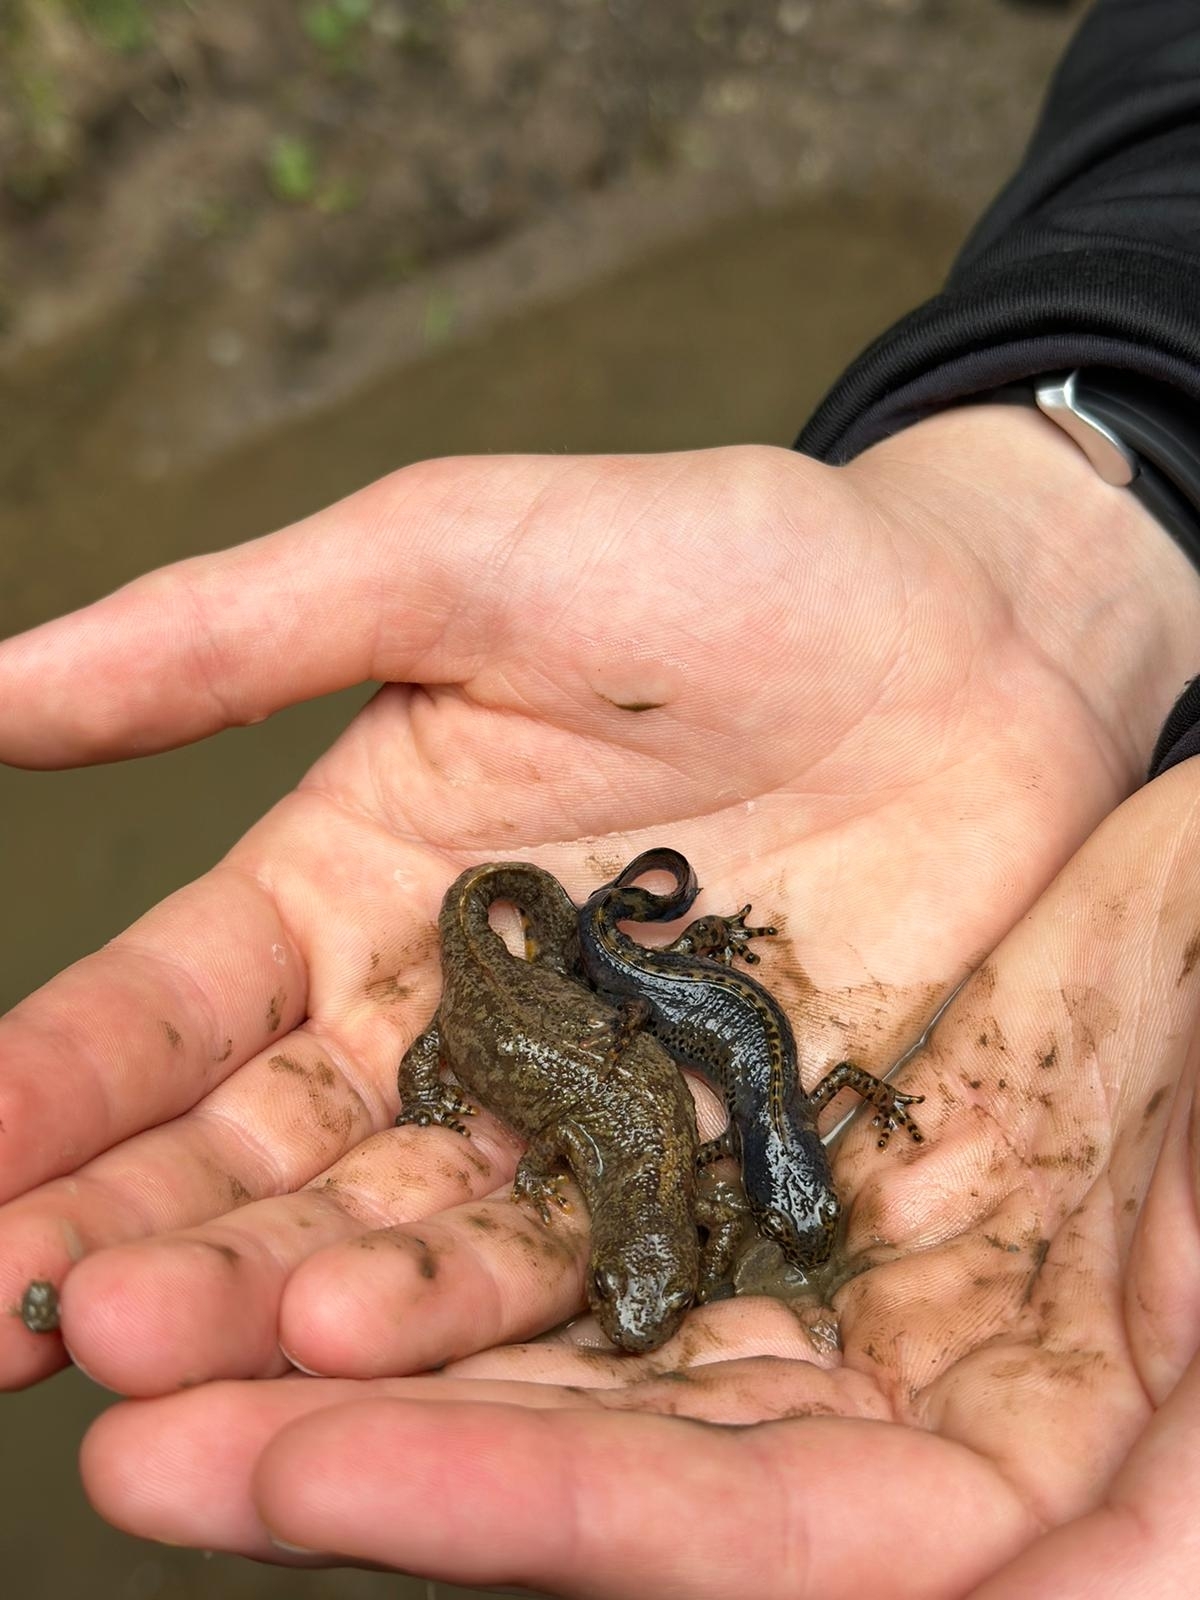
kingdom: Animalia
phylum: Chordata
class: Amphibia
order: Caudata
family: Salamandridae
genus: Ichthyosaura
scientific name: Ichthyosaura alpestris
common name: Alpine newt
